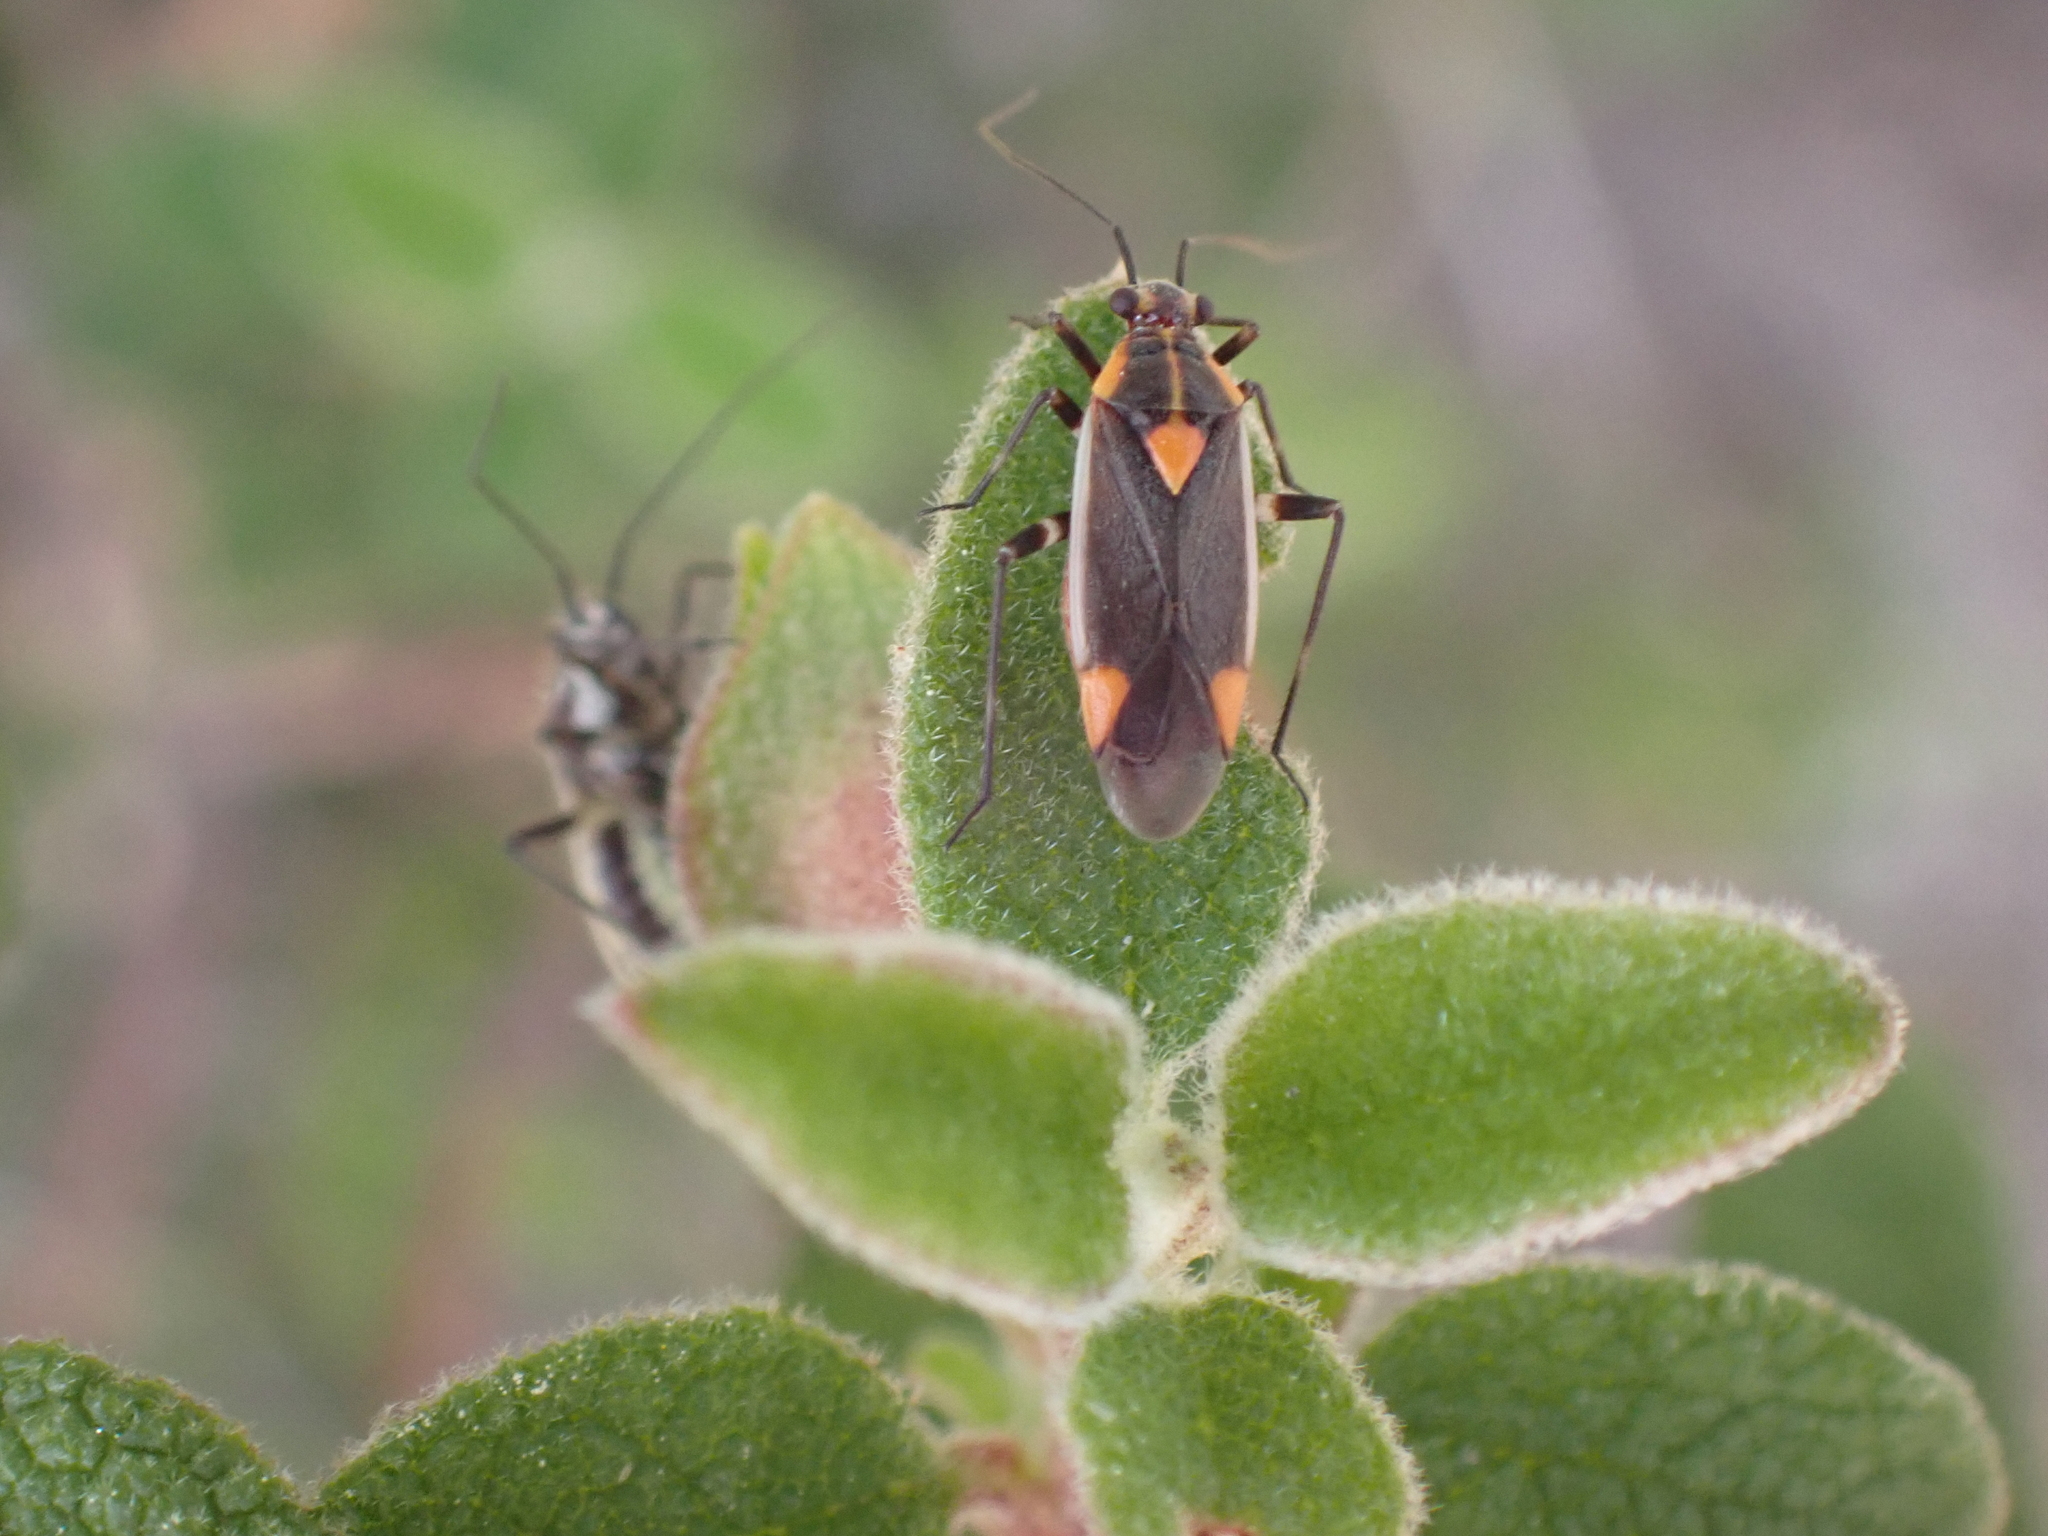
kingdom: Animalia
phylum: Arthropoda
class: Insecta
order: Hemiptera
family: Miridae
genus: Capsodes
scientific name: Capsodes flavomarginatus
